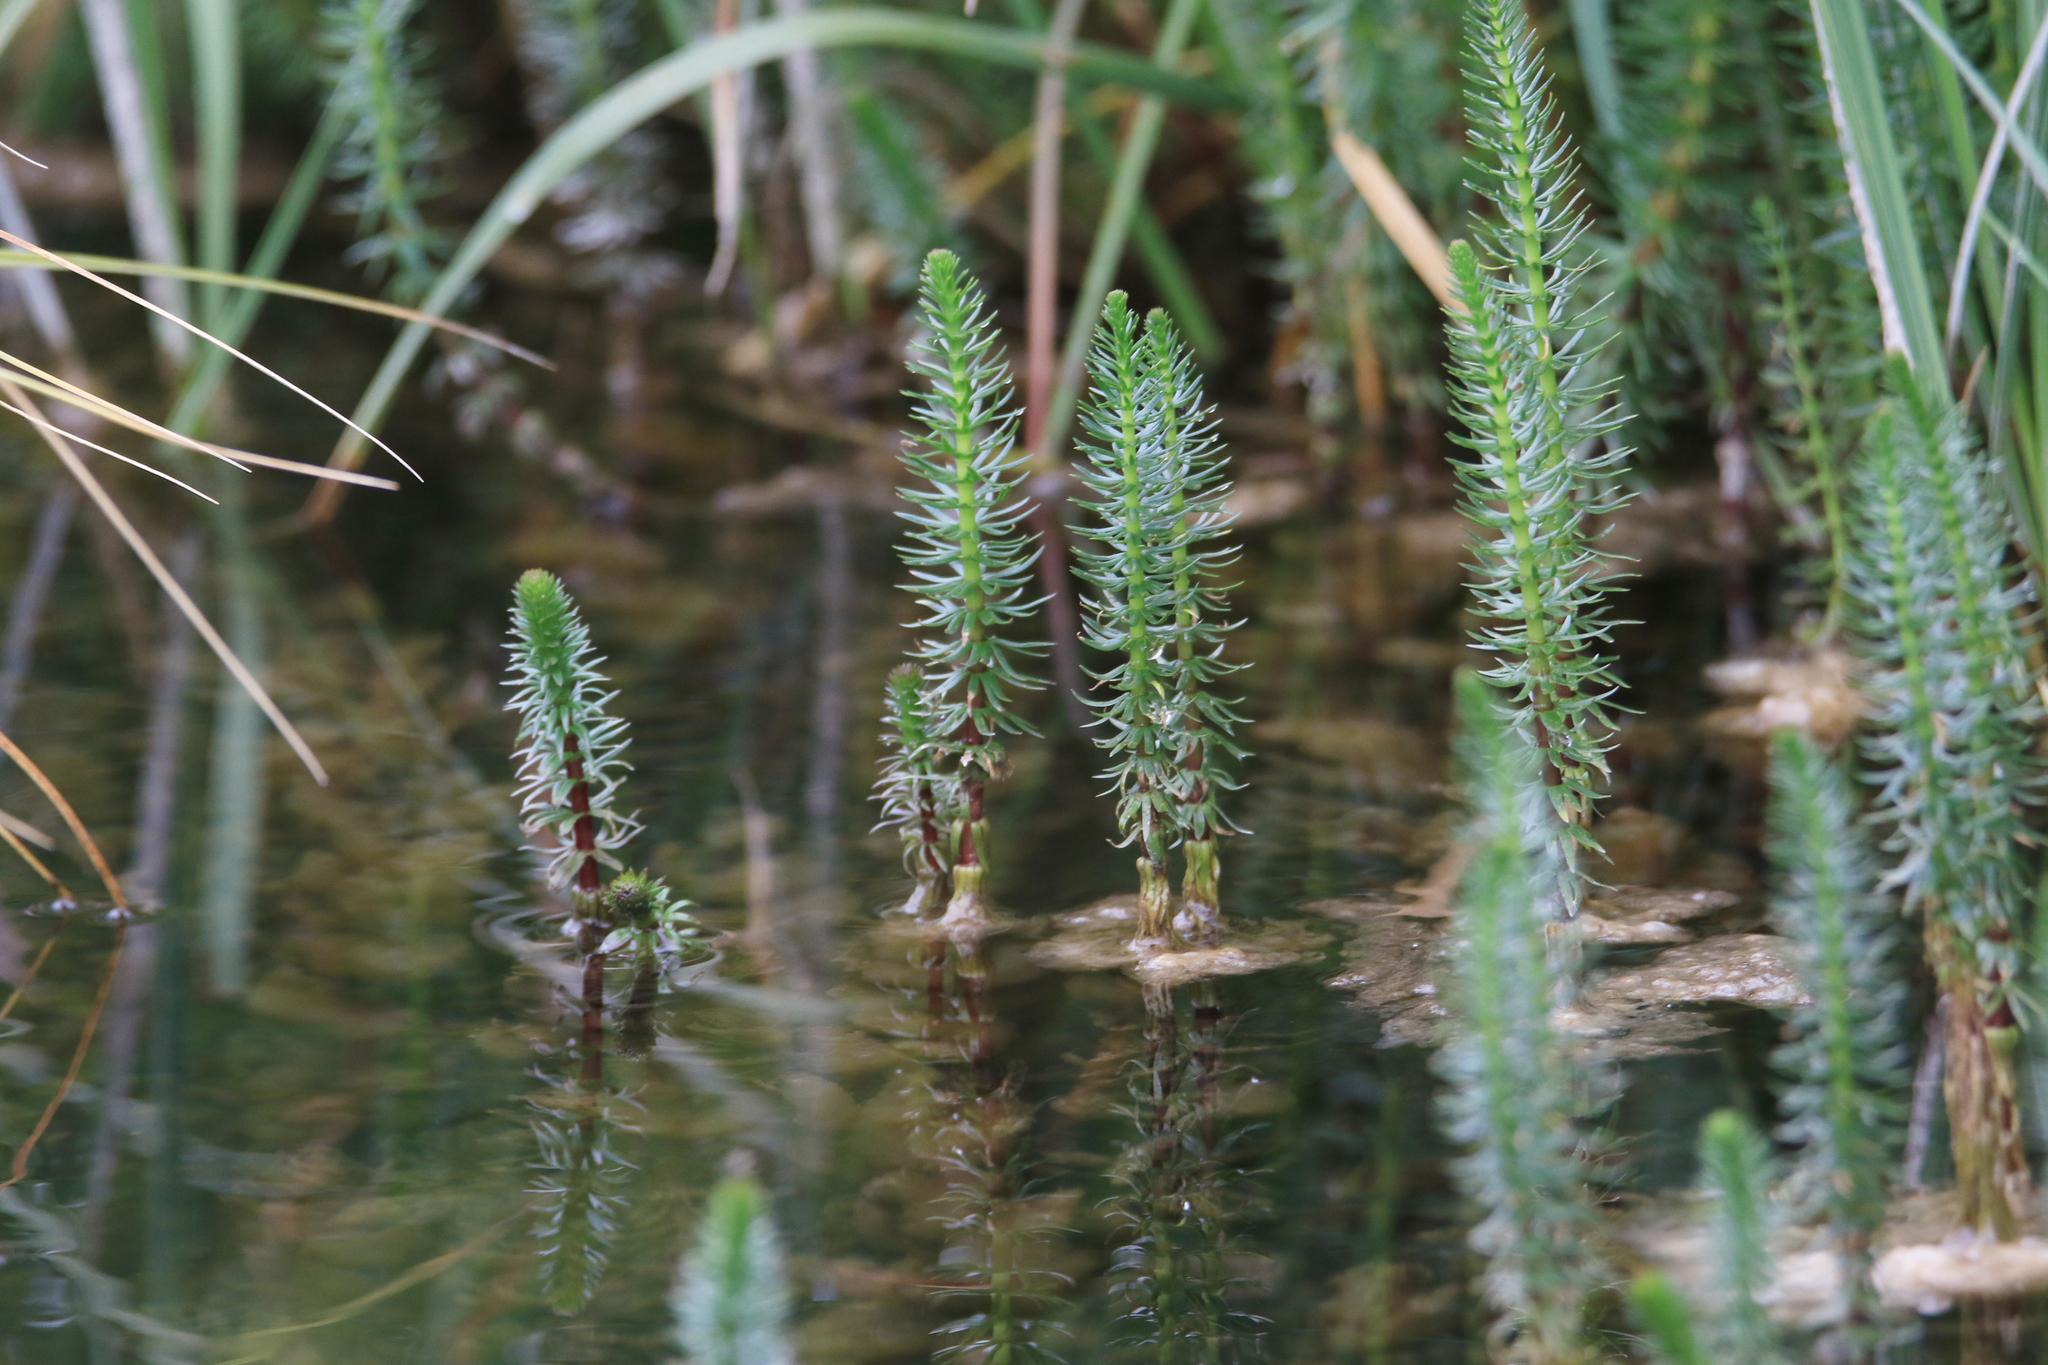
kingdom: Plantae
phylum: Tracheophyta
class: Magnoliopsida
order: Lamiales
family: Plantaginaceae
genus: Hippuris
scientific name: Hippuris vulgaris
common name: Mare's-tail
